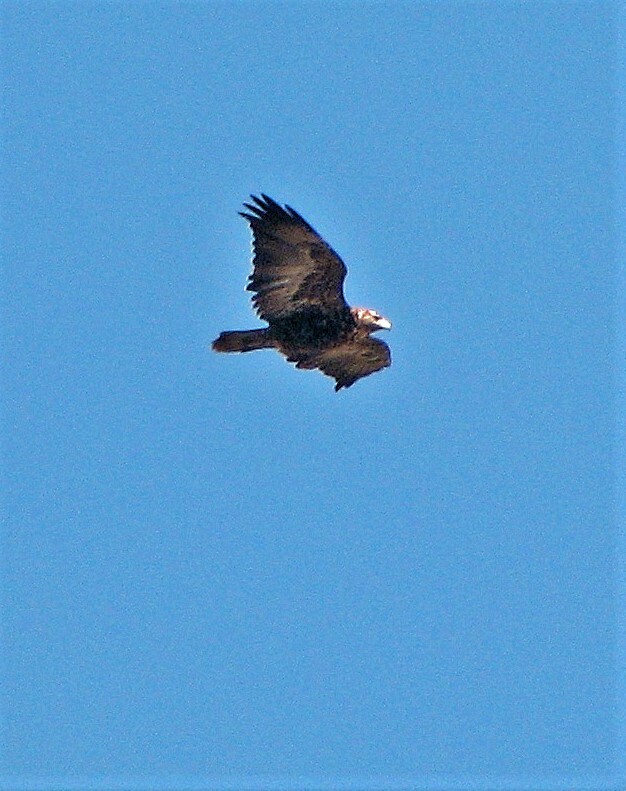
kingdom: Animalia
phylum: Chordata
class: Aves
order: Accipitriformes
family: Accipitridae
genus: Parabuteo
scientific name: Parabuteo unicinctus
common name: Harris's hawk
